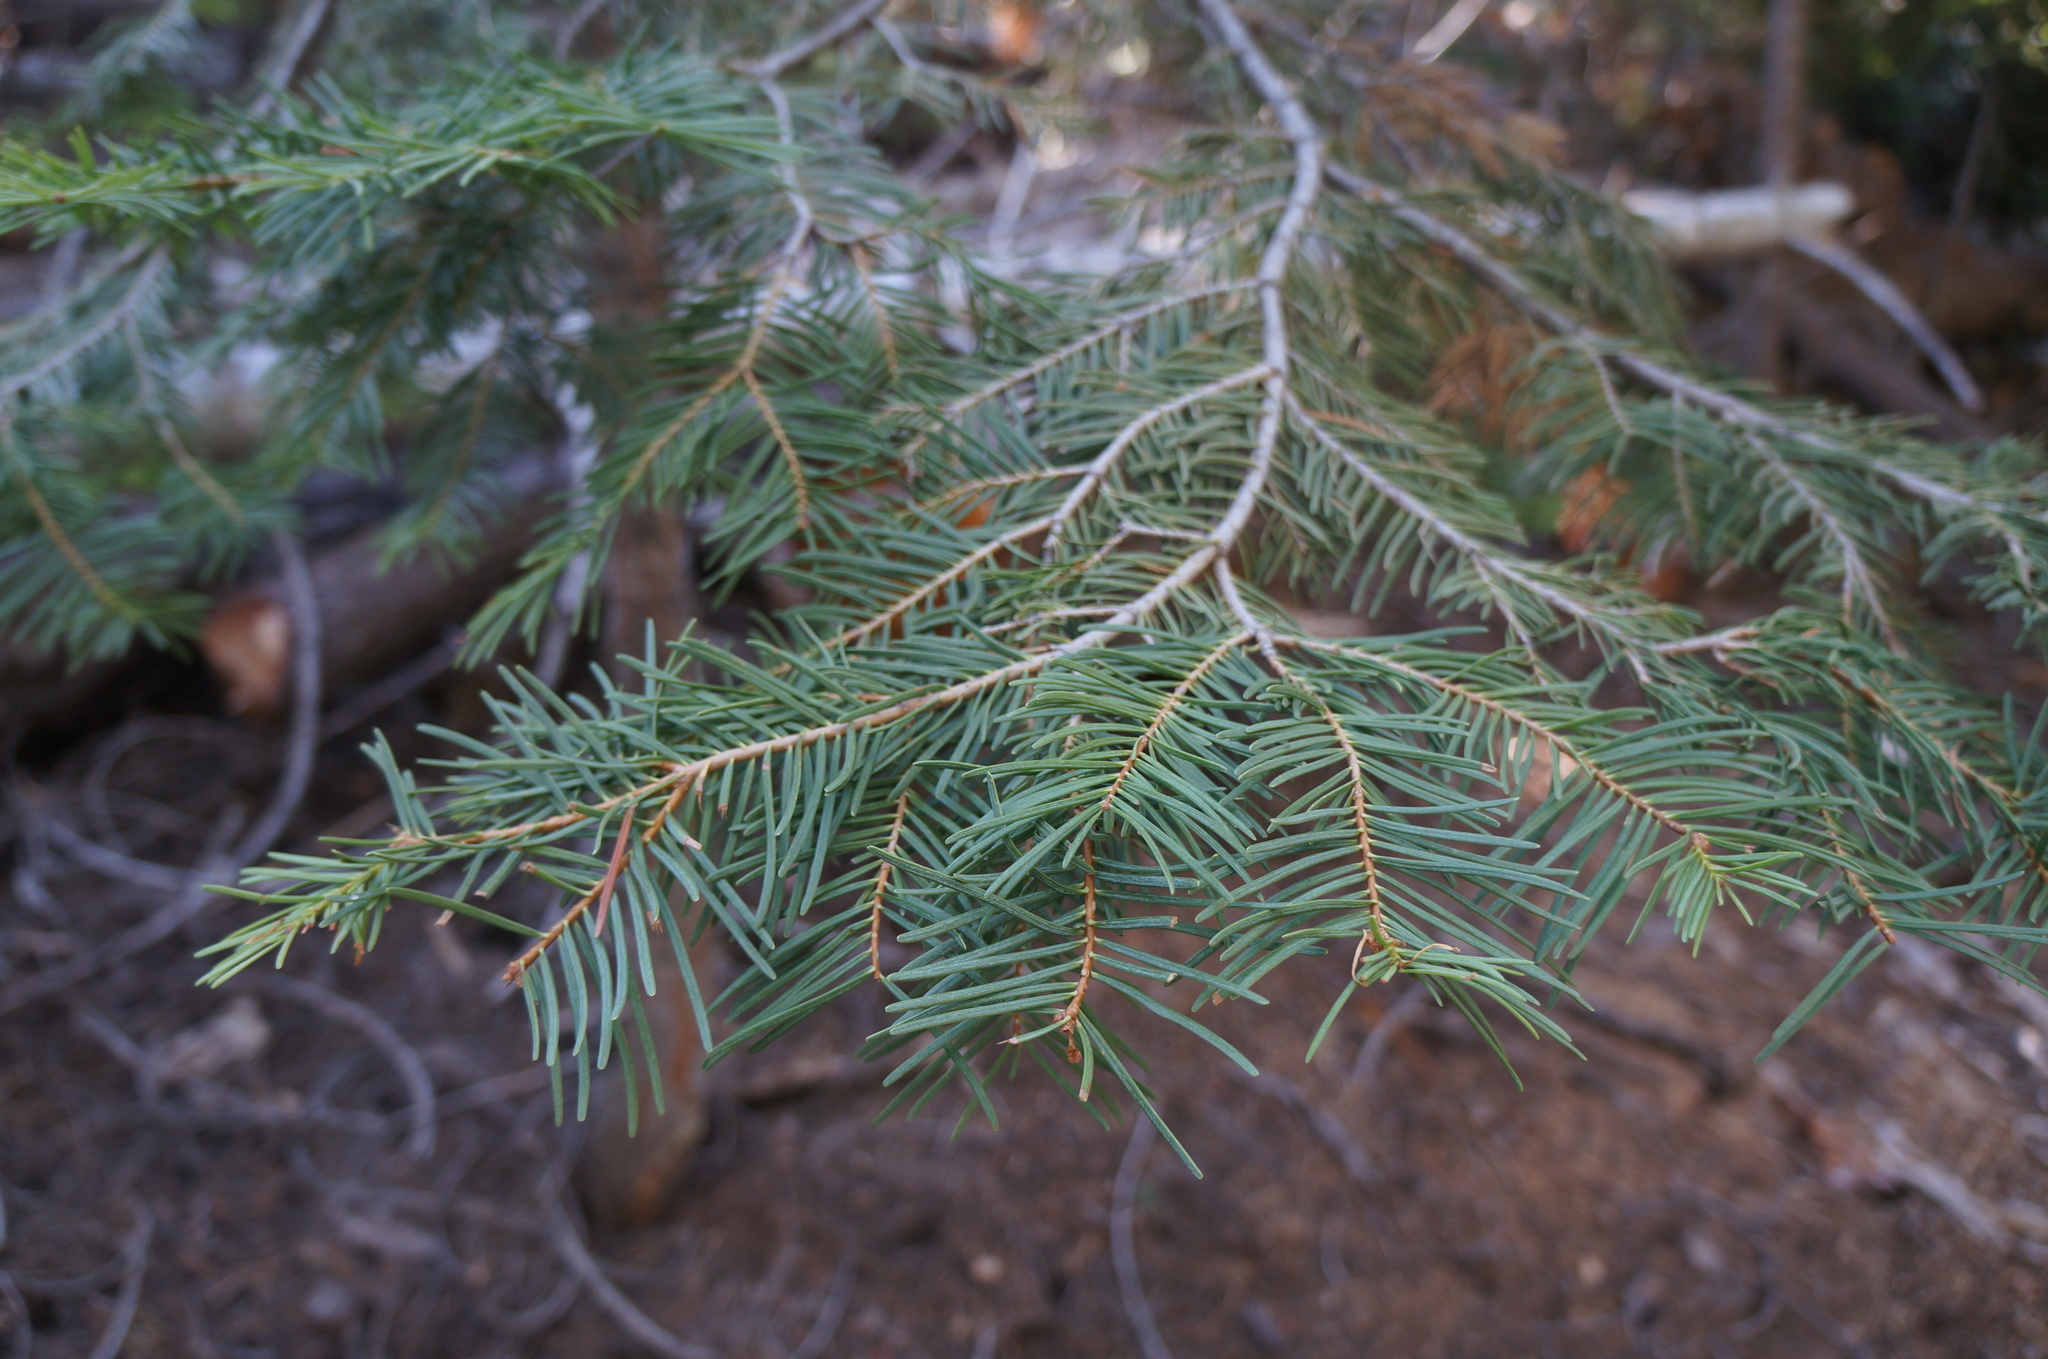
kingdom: Plantae
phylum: Tracheophyta
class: Pinopsida
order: Pinales
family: Pinaceae
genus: Abies
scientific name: Abies concolor
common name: Colorado fir
